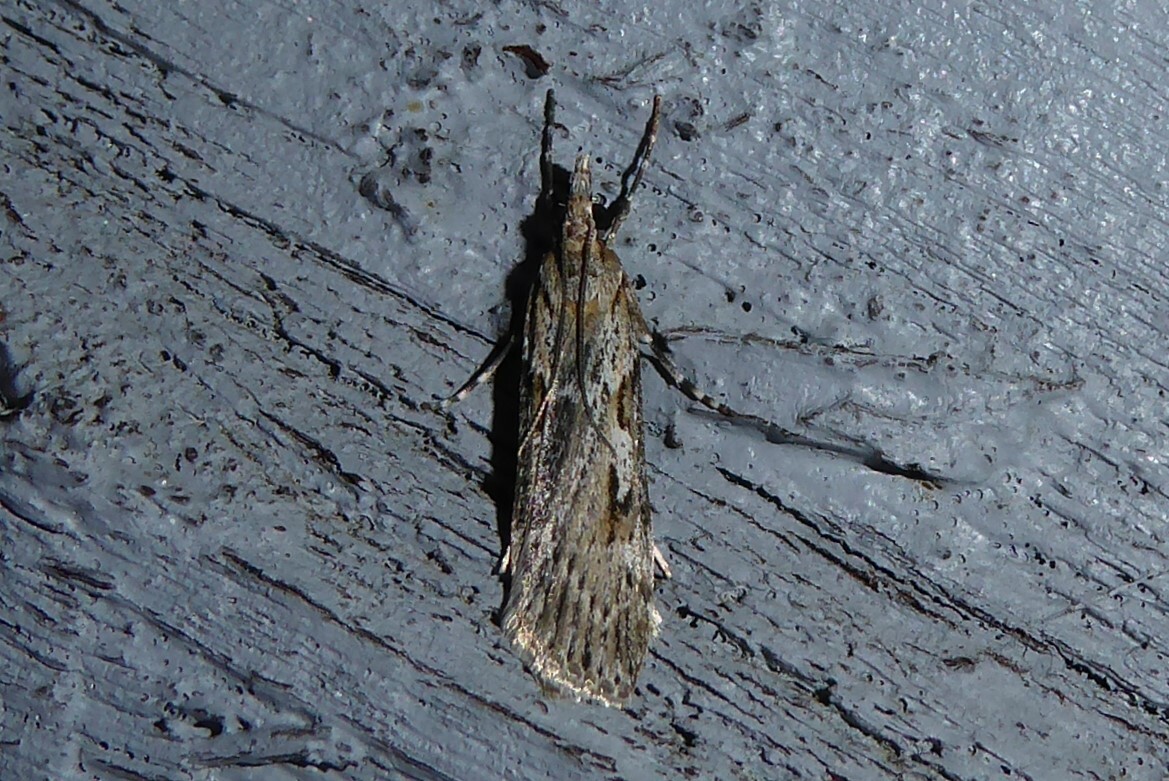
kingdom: Animalia
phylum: Arthropoda
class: Insecta
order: Lepidoptera
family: Crambidae
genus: Scoparia
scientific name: Scoparia halopis
